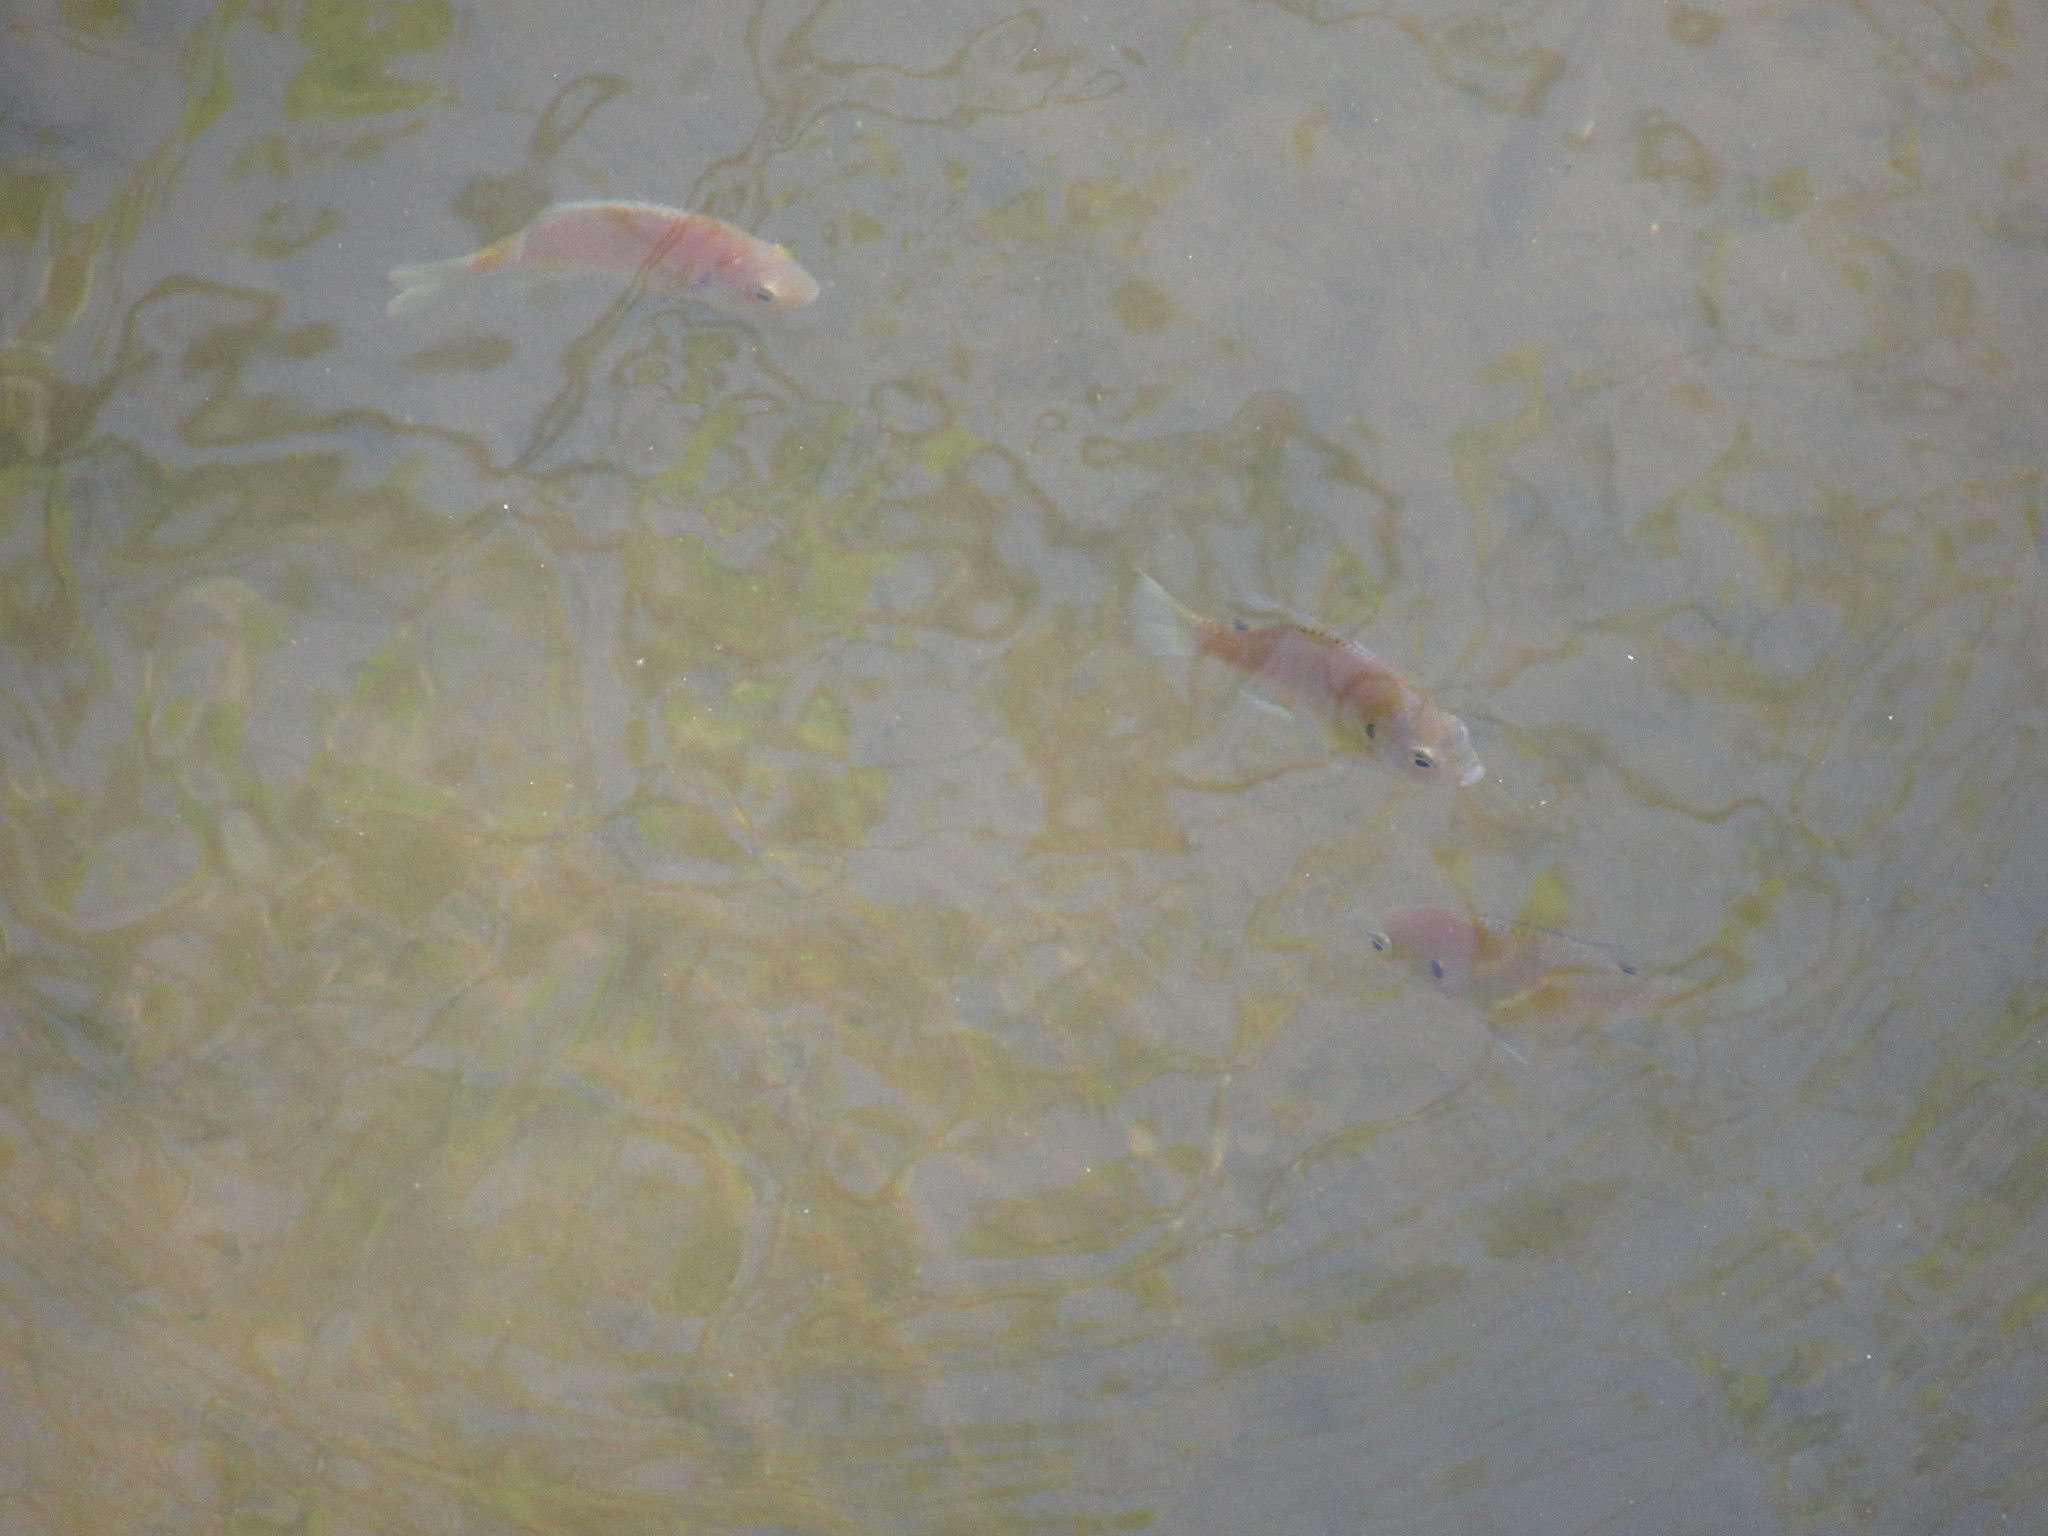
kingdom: Animalia
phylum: Chordata
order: Perciformes
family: Centrarchidae
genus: Lepomis
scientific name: Lepomis macrochirus
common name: Bluegill
